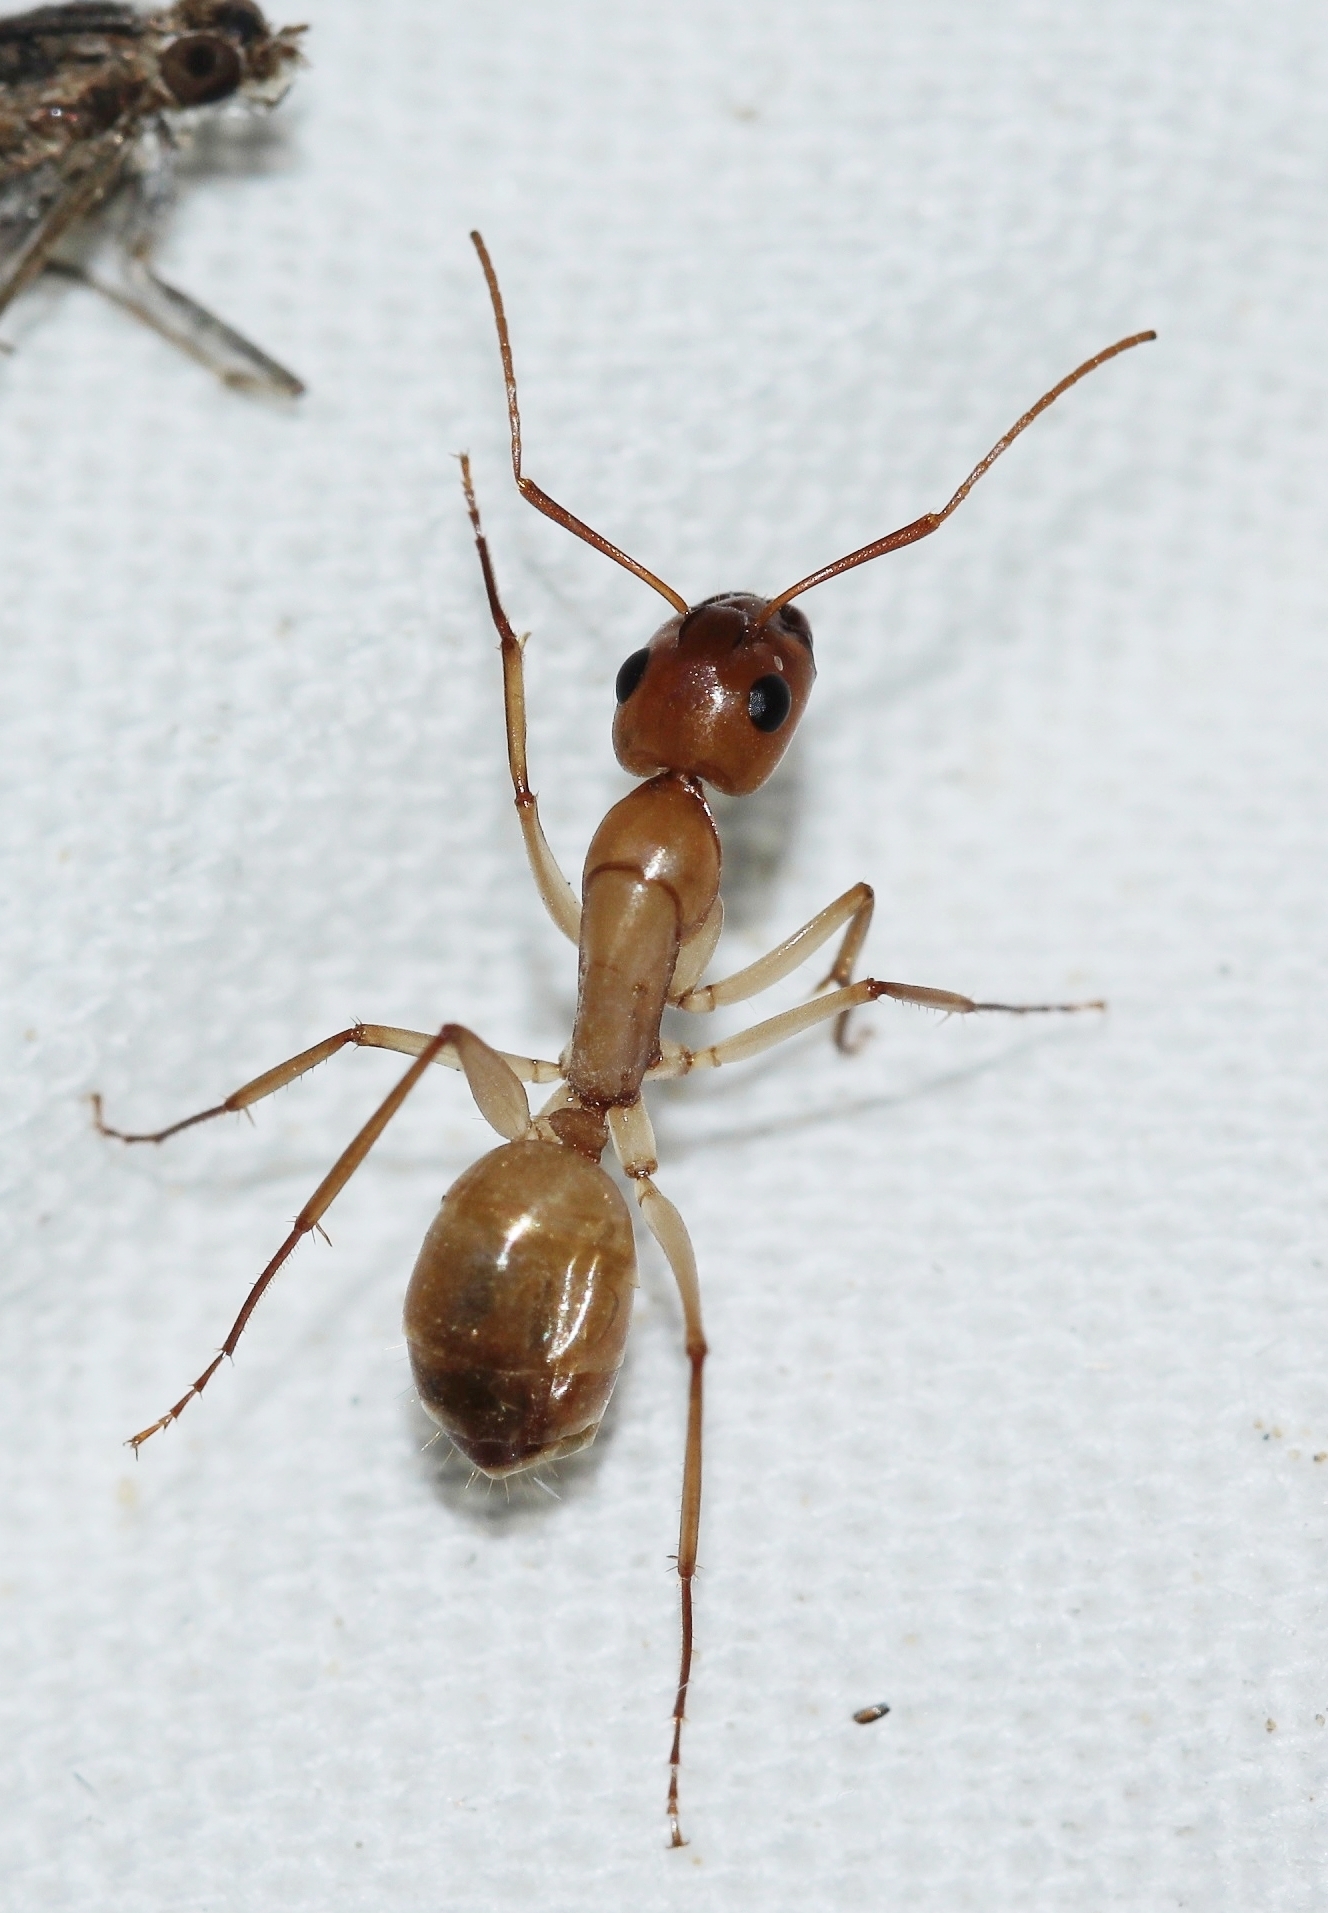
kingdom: Animalia
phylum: Arthropoda
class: Insecta
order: Hymenoptera
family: Formicidae
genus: Camponotus
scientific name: Camponotus turkestanus
